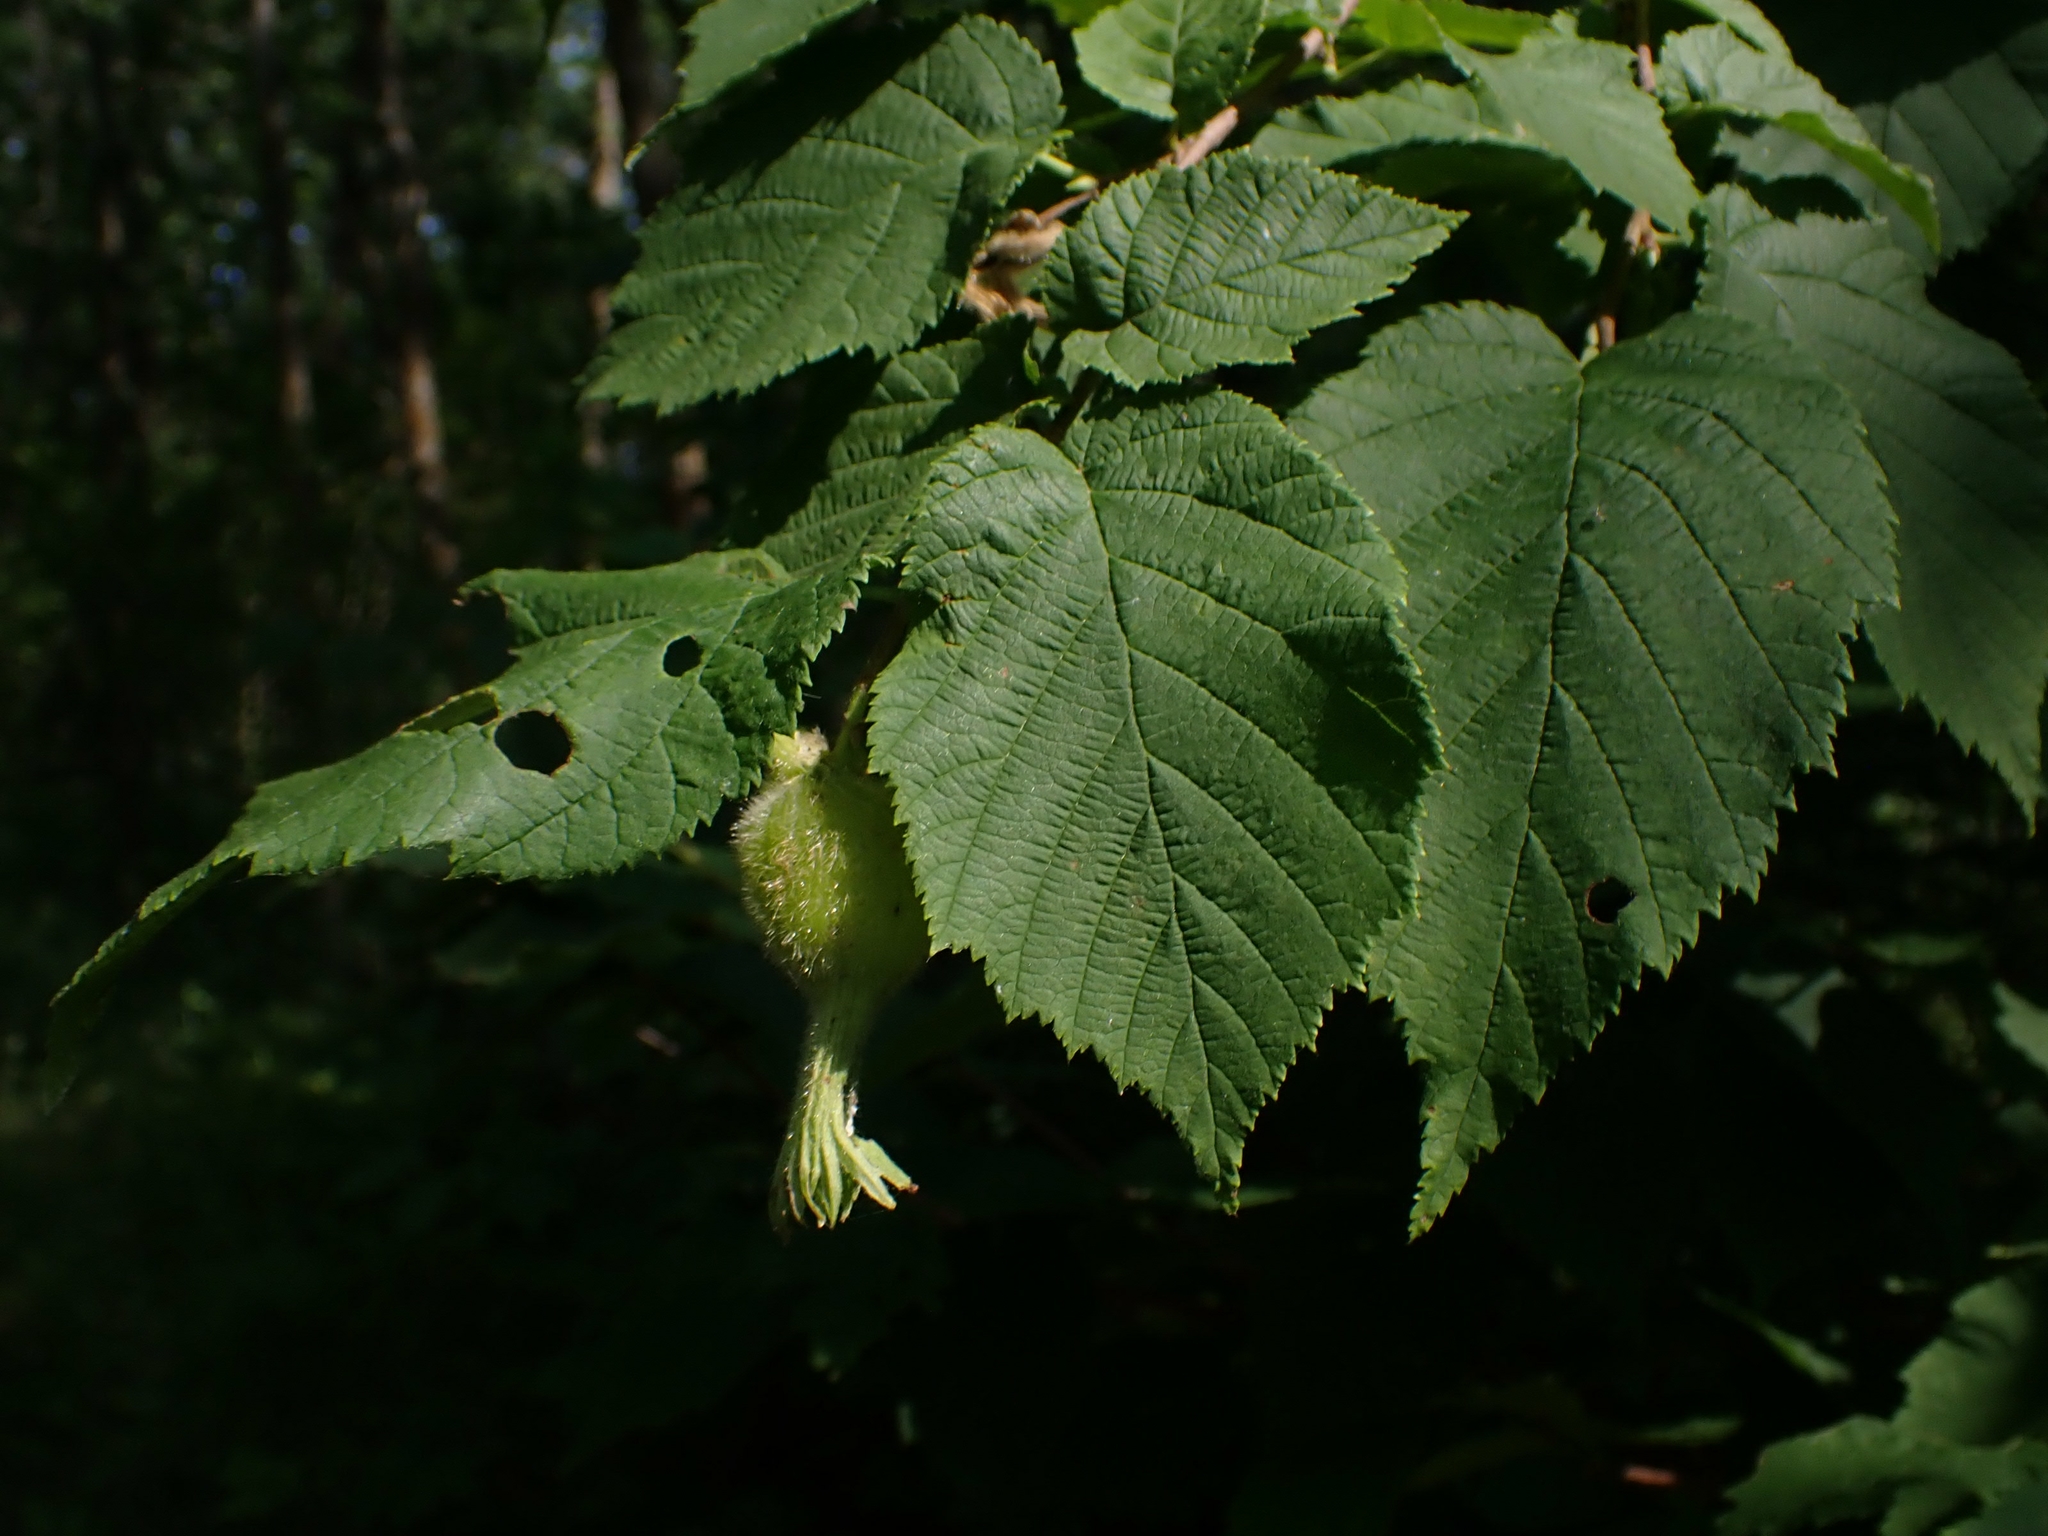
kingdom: Plantae
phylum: Tracheophyta
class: Magnoliopsida
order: Fagales
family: Betulaceae
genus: Corylus
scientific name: Corylus cornuta
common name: Beaked hazel
